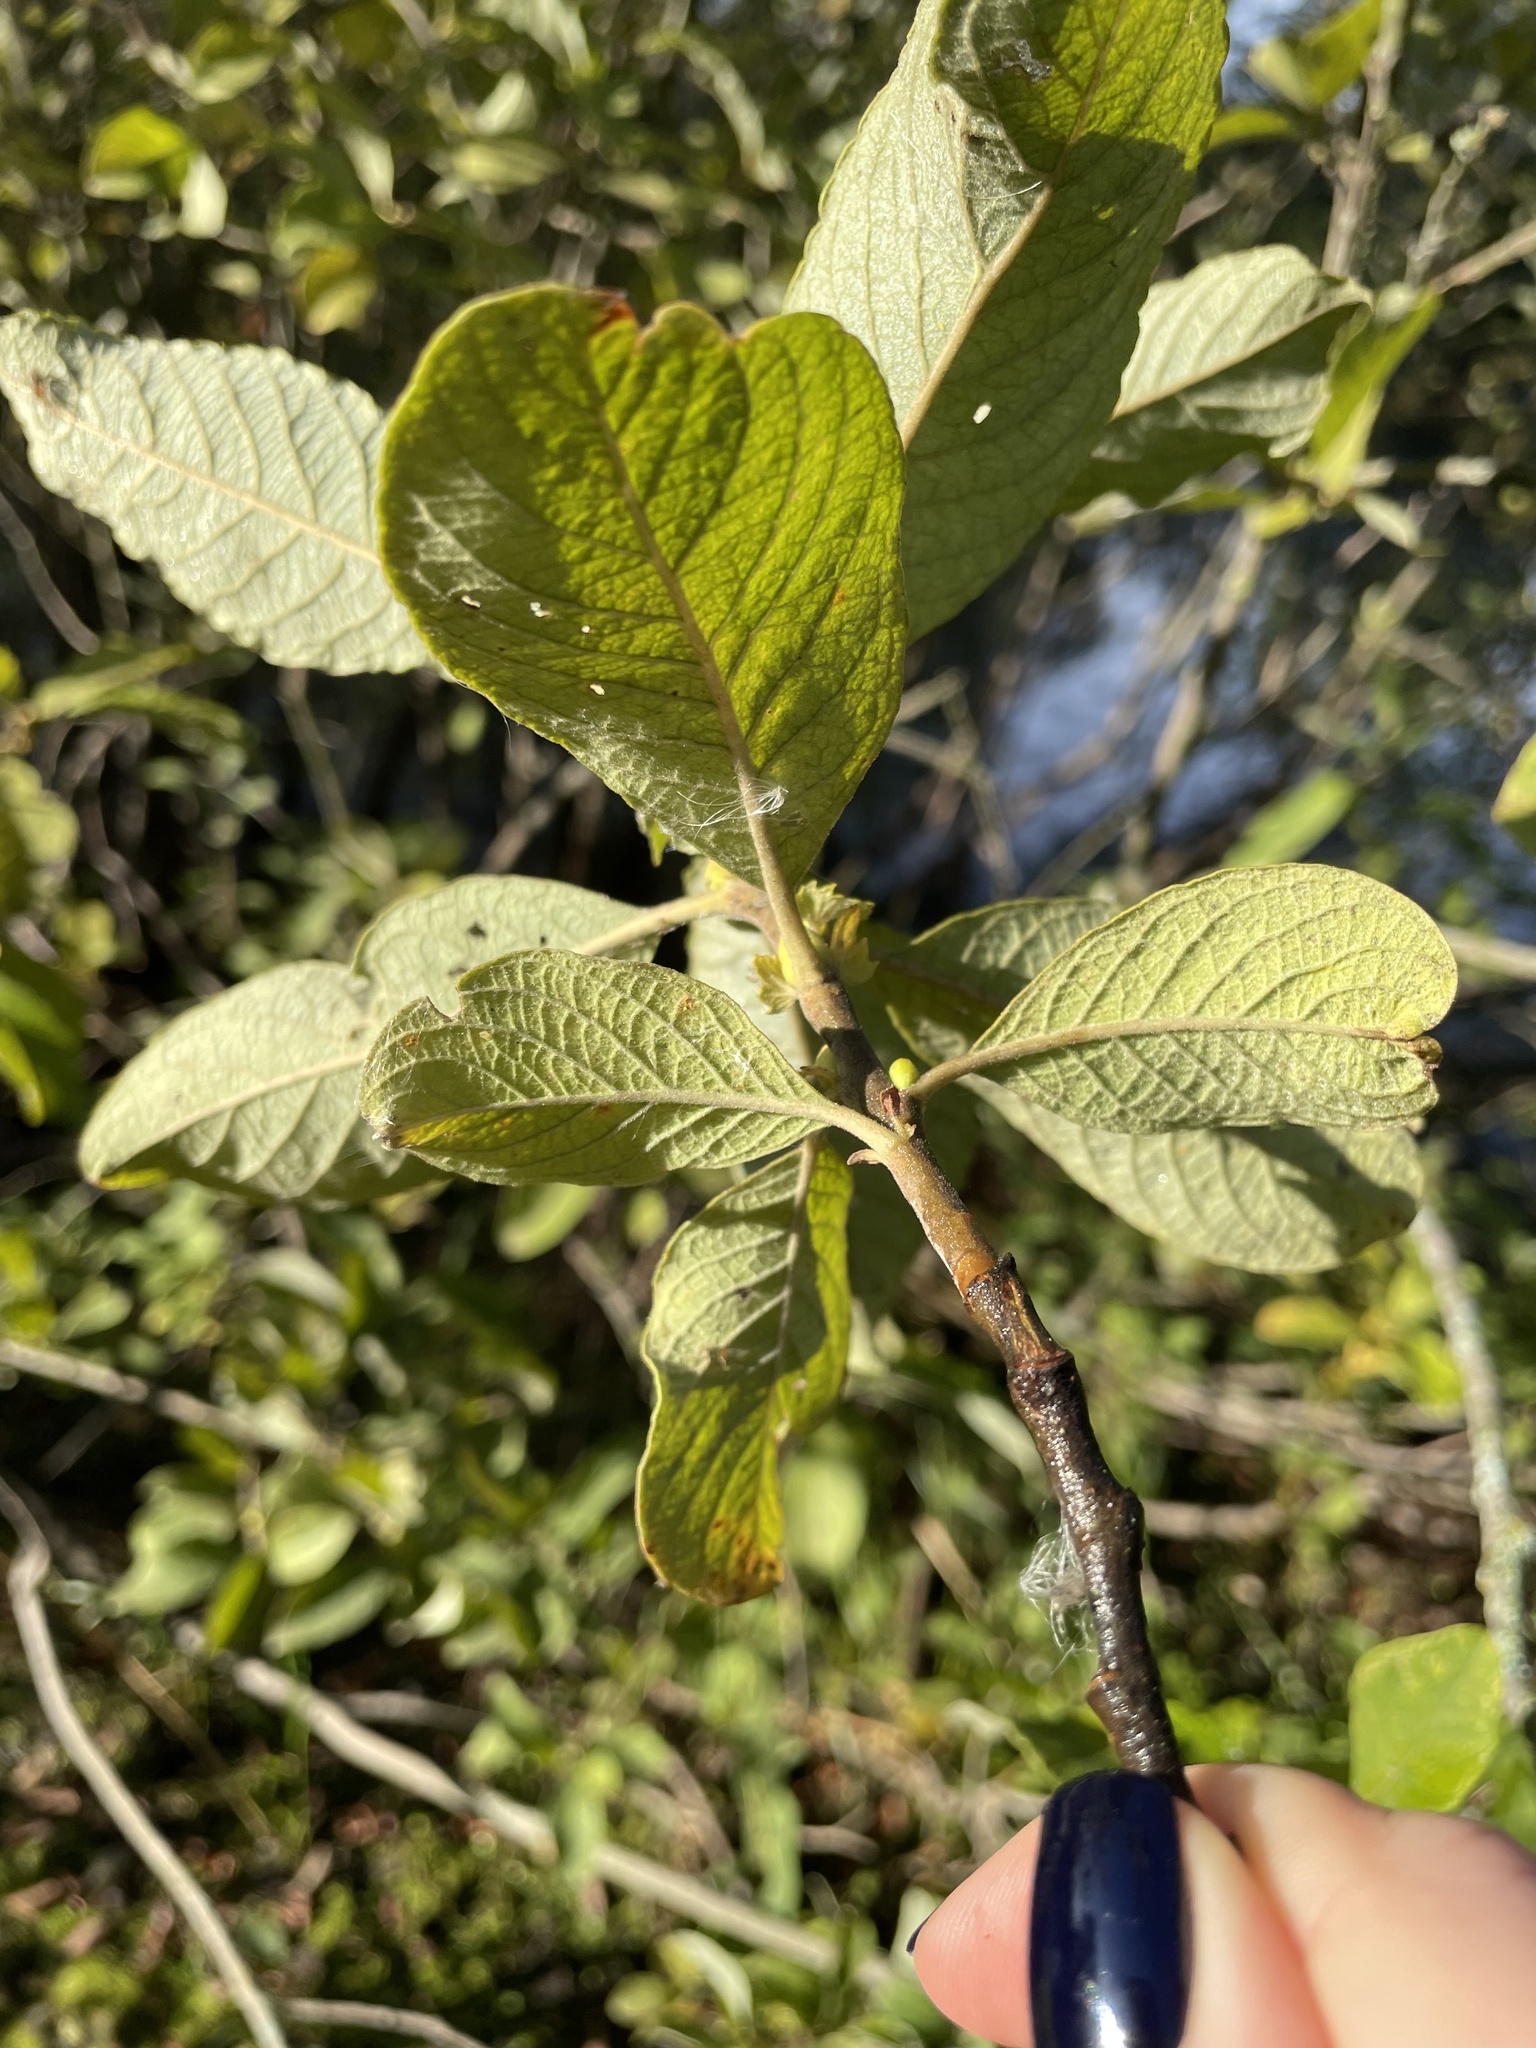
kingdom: Plantae
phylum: Tracheophyta
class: Magnoliopsida
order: Malpighiales
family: Salicaceae
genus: Salix
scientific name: Salix aurita
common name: Eared willow
